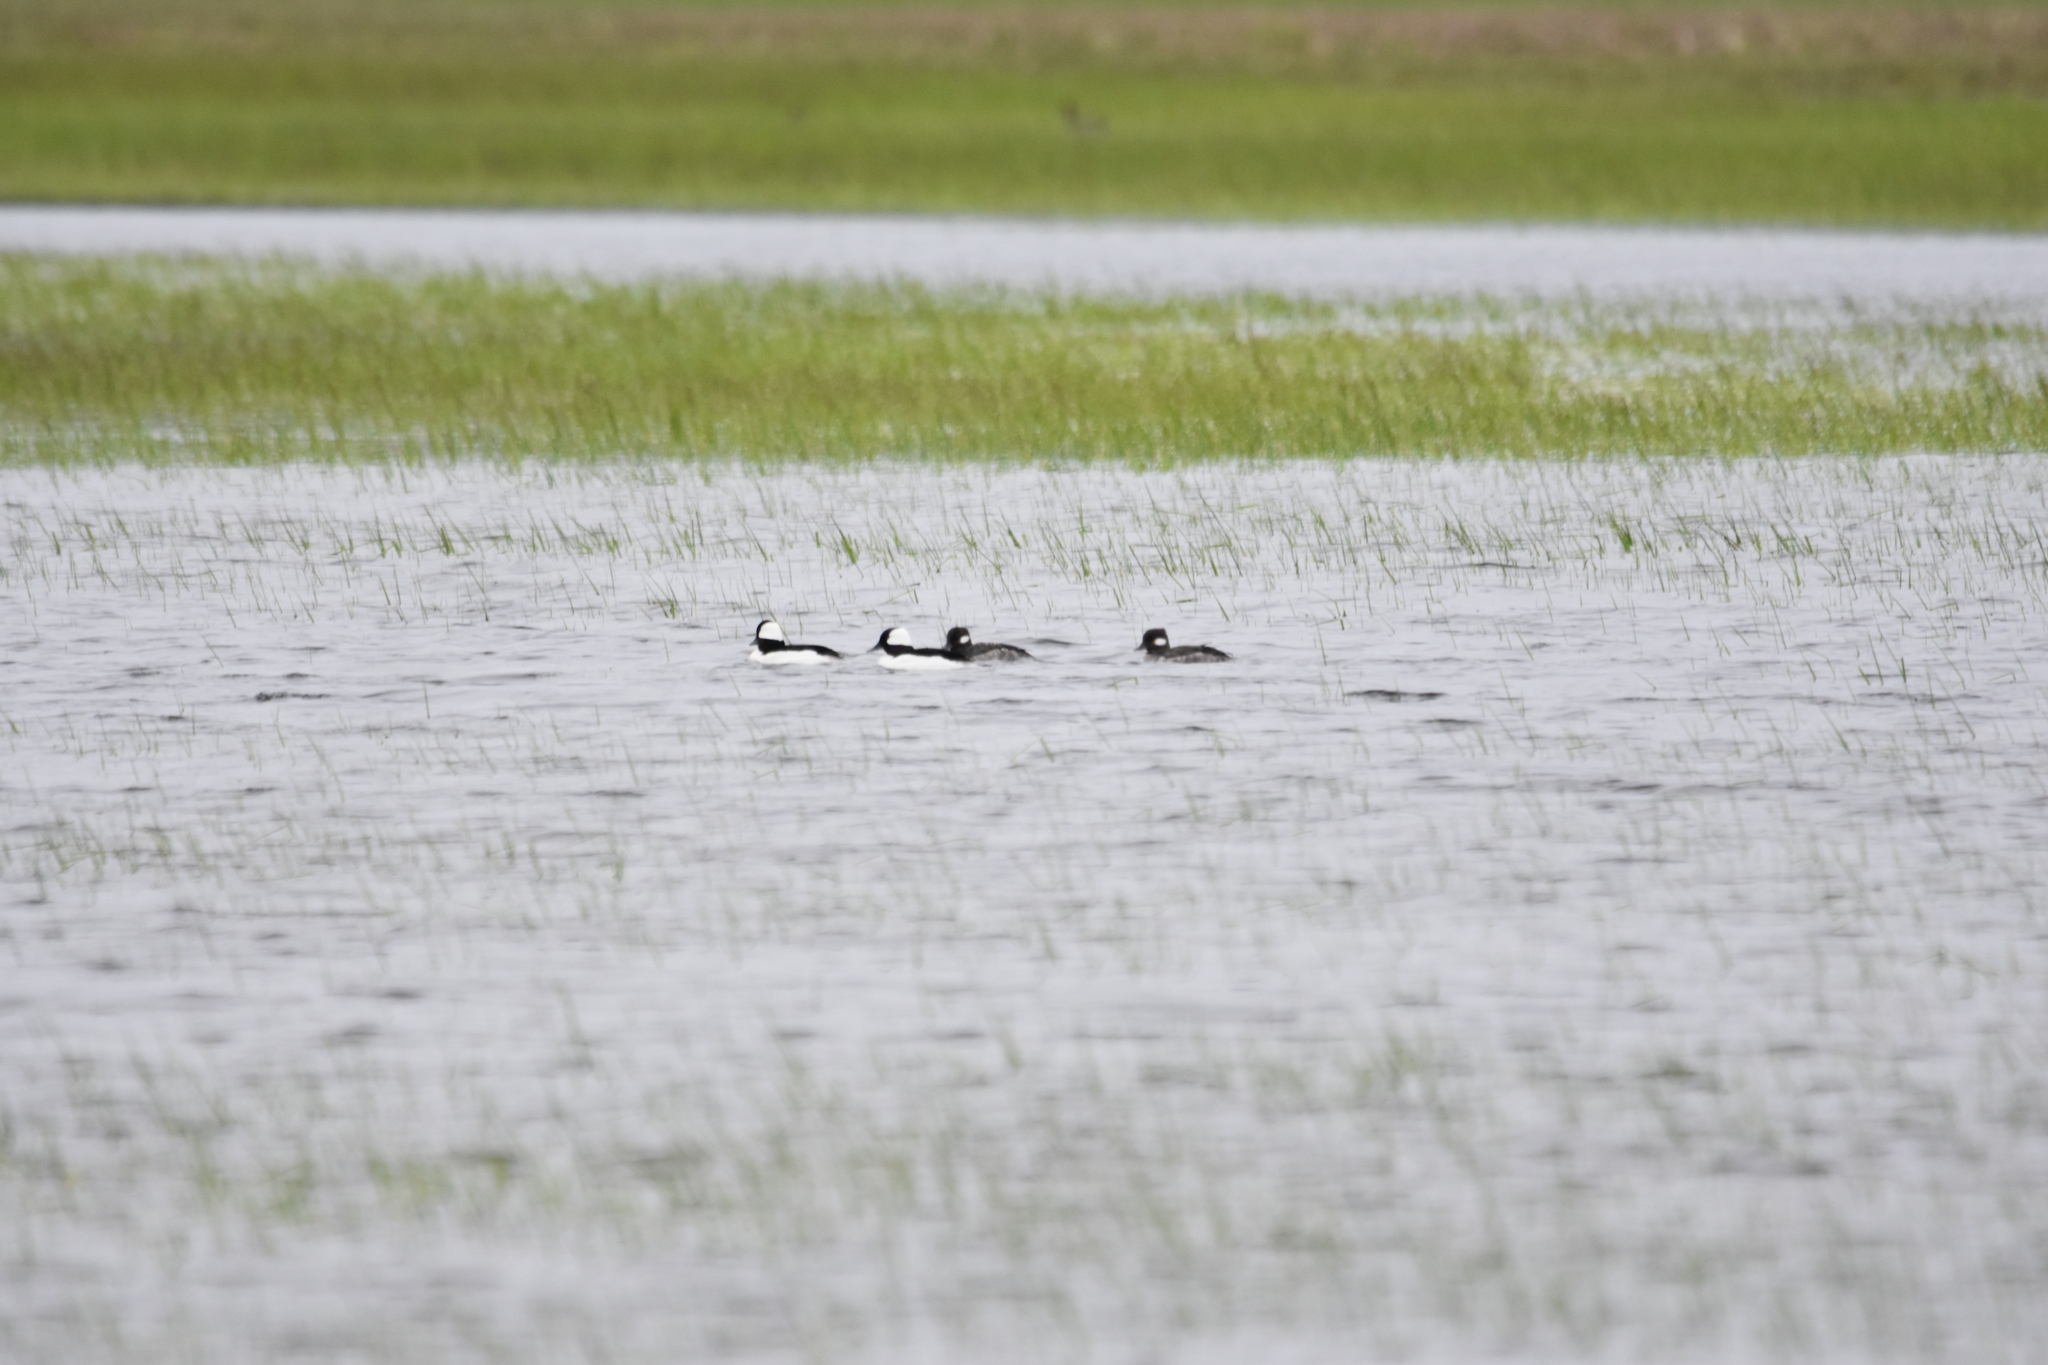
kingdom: Animalia
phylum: Chordata
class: Aves
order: Anseriformes
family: Anatidae
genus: Bucephala
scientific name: Bucephala albeola
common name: Bufflehead
